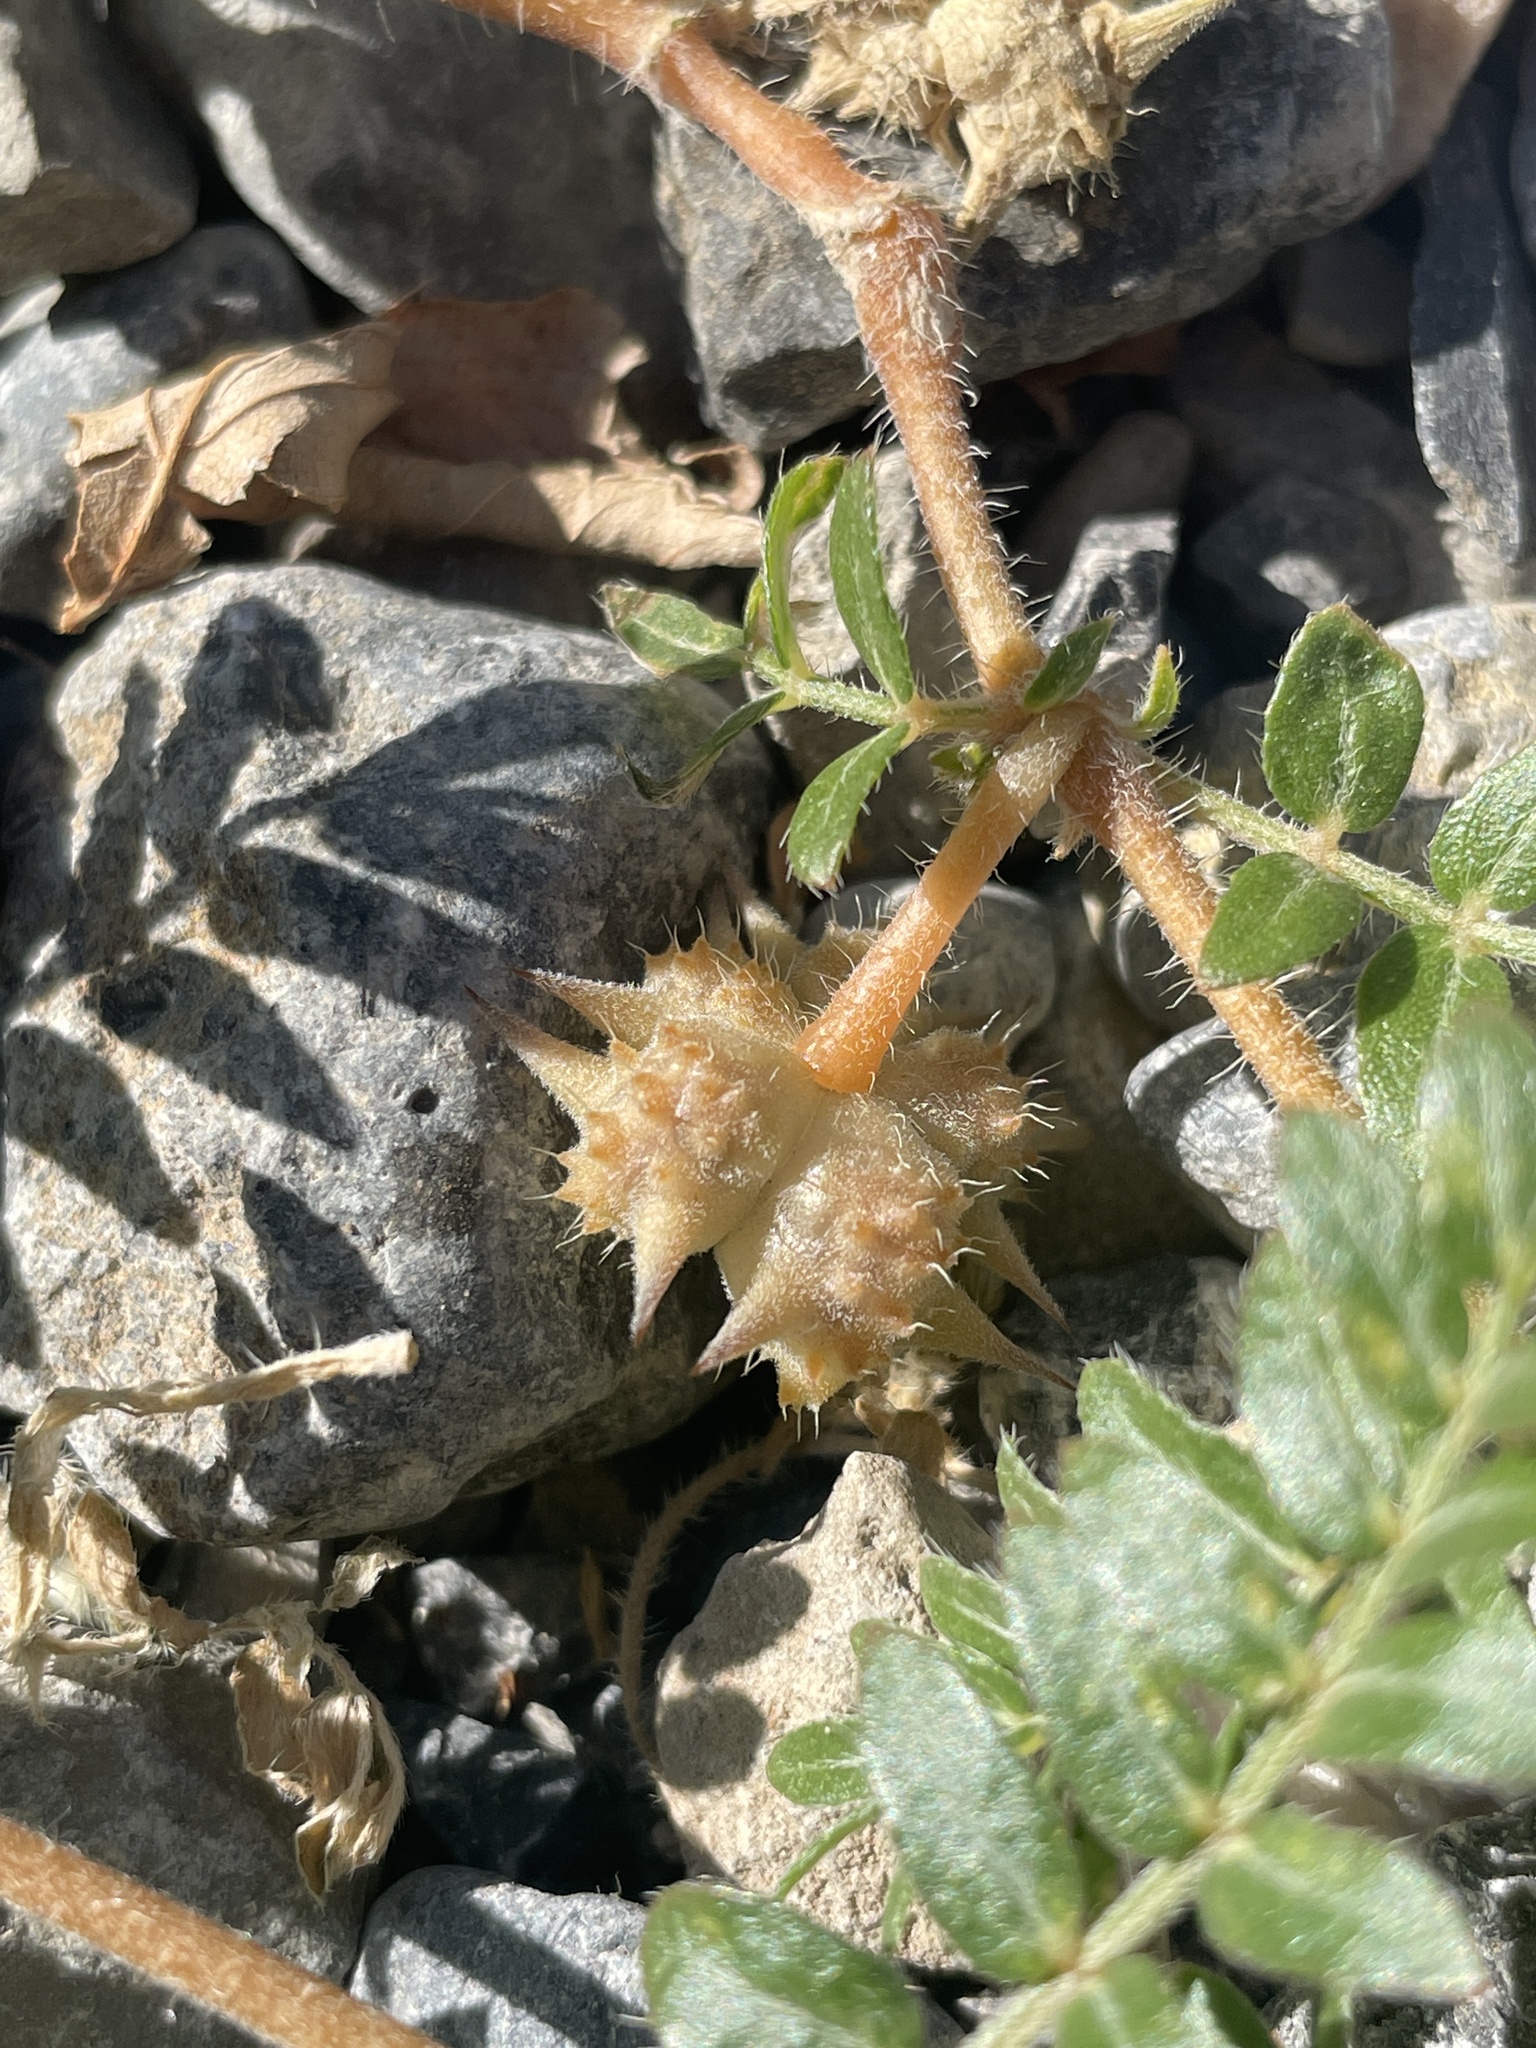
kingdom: Plantae
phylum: Tracheophyta
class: Magnoliopsida
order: Zygophyllales
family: Zygophyllaceae
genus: Tribulus
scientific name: Tribulus terrestris
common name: Puncturevine
